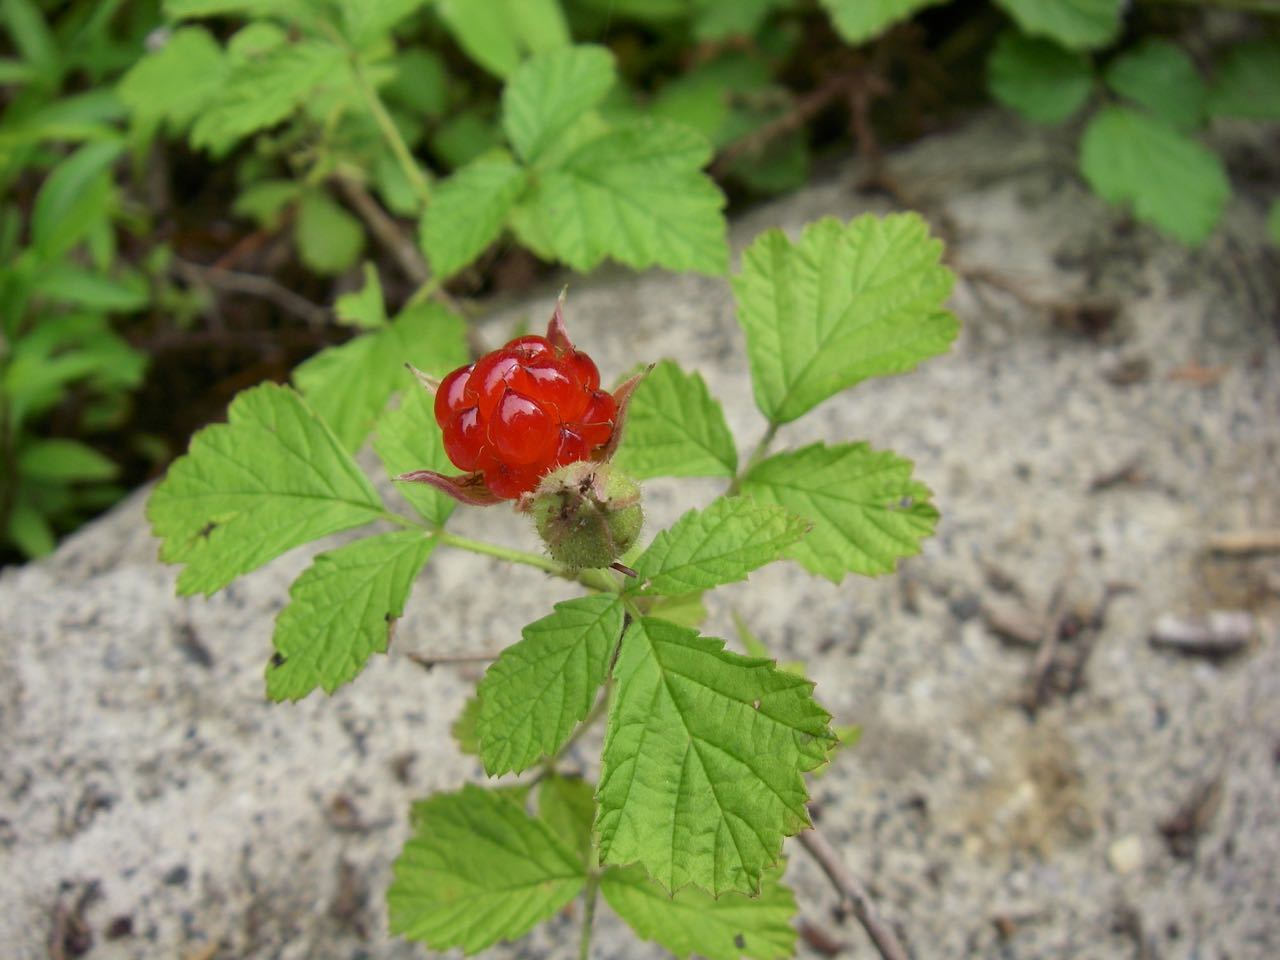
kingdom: Plantae
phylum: Tracheophyta
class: Magnoliopsida
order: Rosales
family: Rosaceae
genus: Rubus
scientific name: Rubus parvifolius
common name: Threeleaf blackberry
